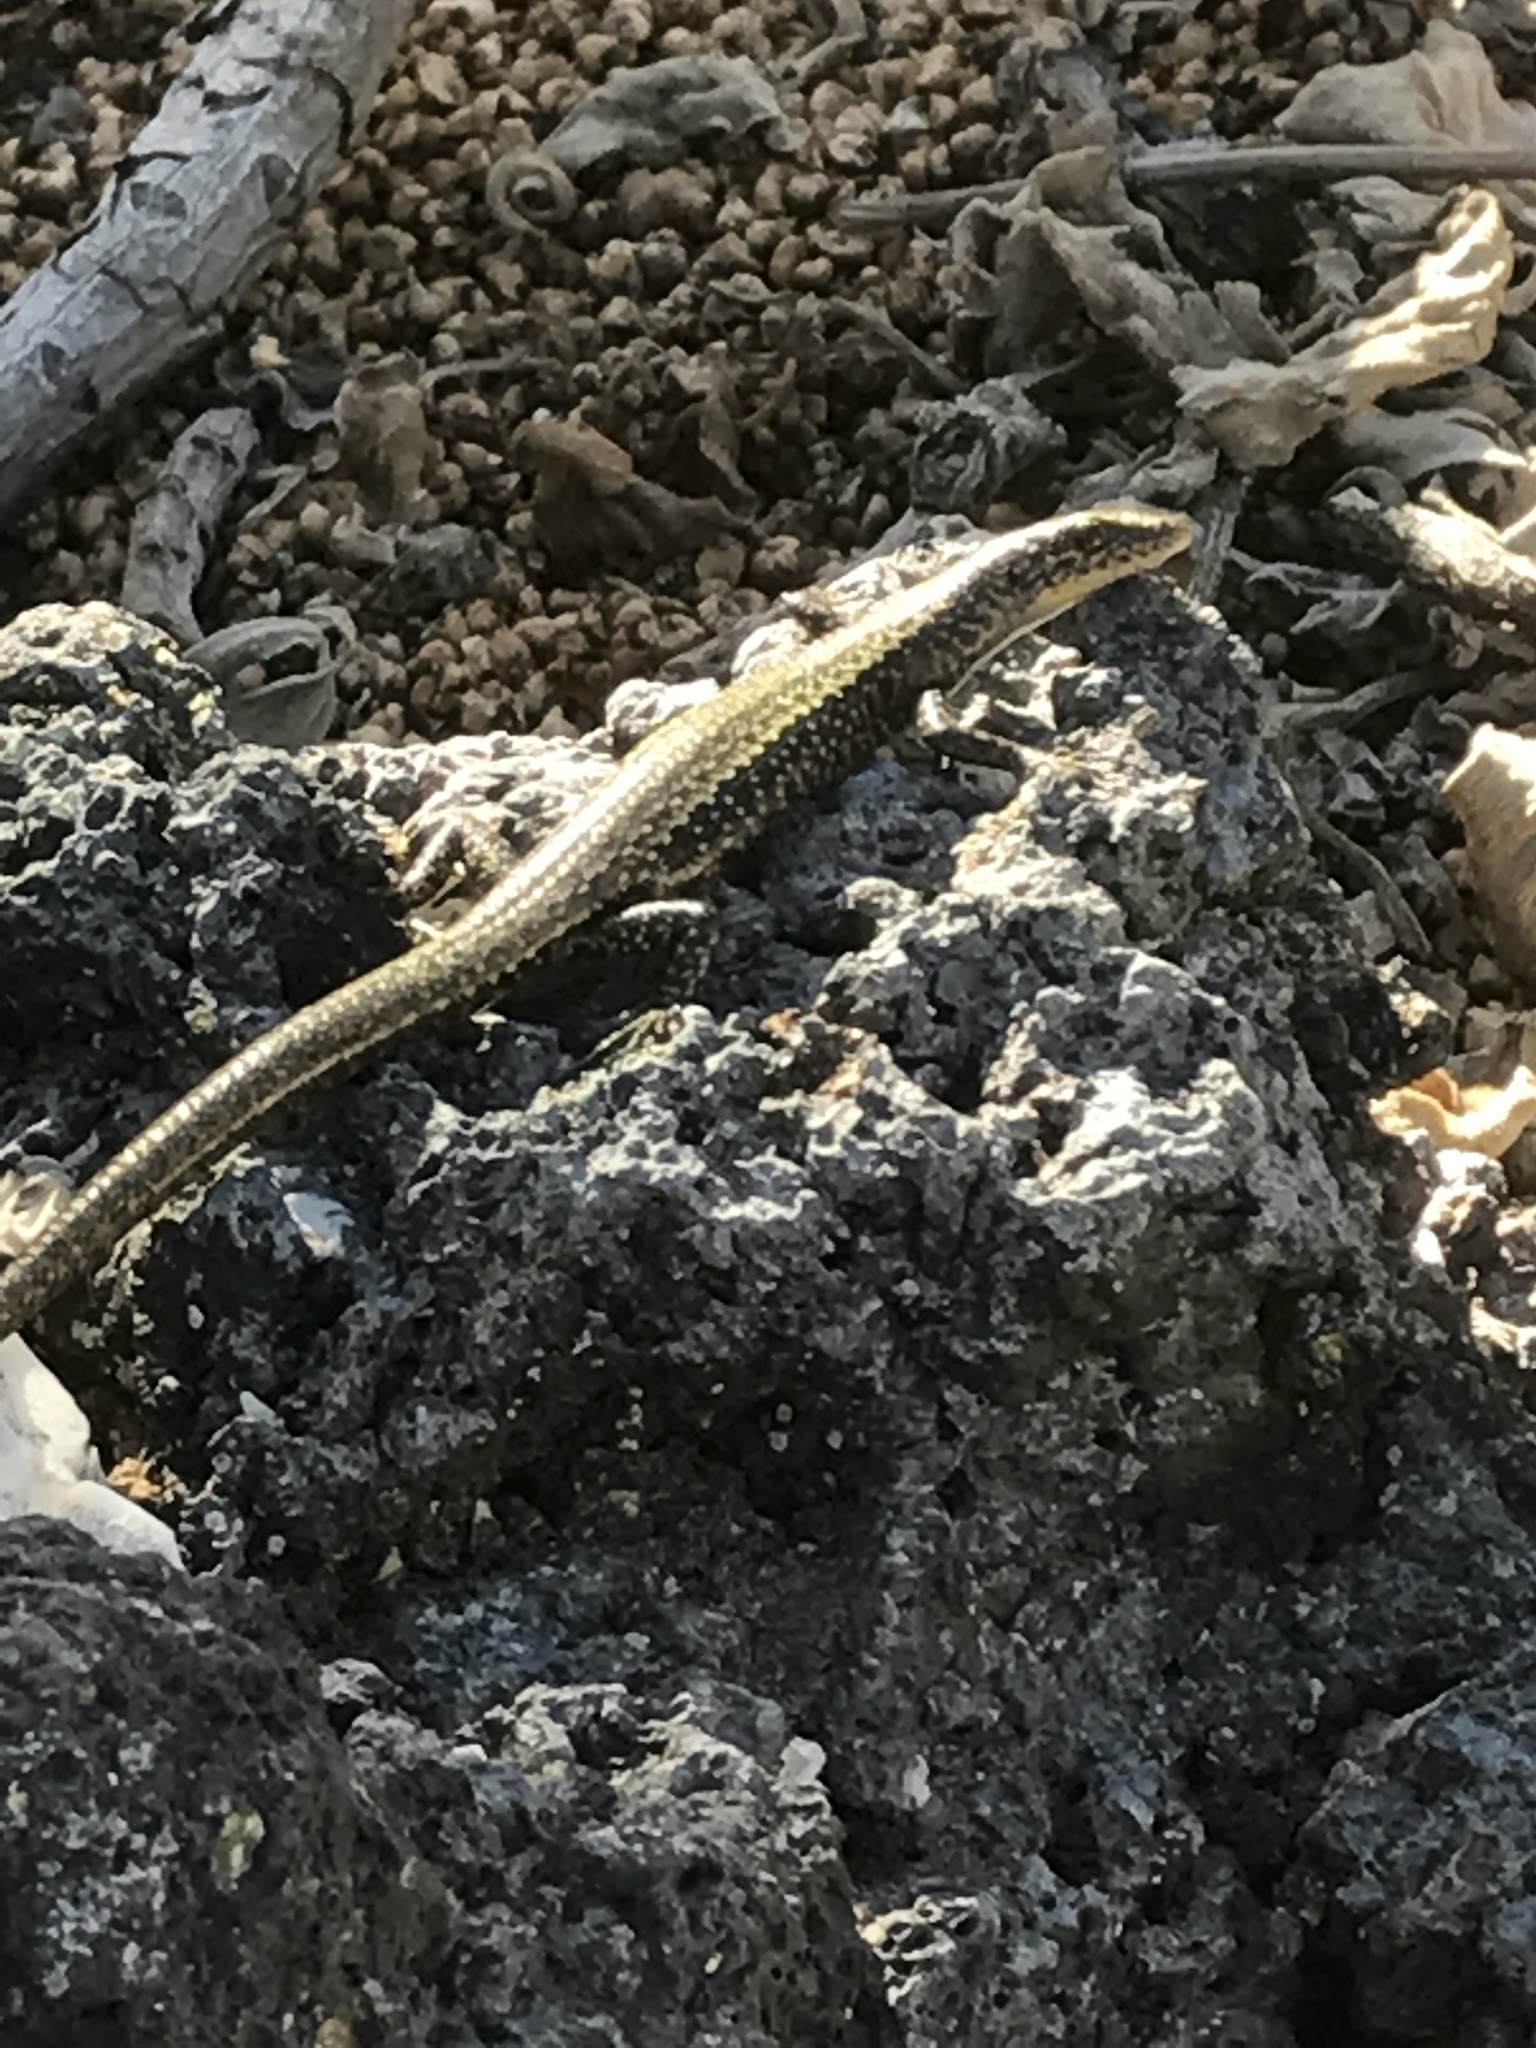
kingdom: Animalia
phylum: Chordata
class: Squamata
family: Scincidae
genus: Cryptoblepharus
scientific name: Cryptoblepharus poecilopleurus
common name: Mottled snake-eyed skink
